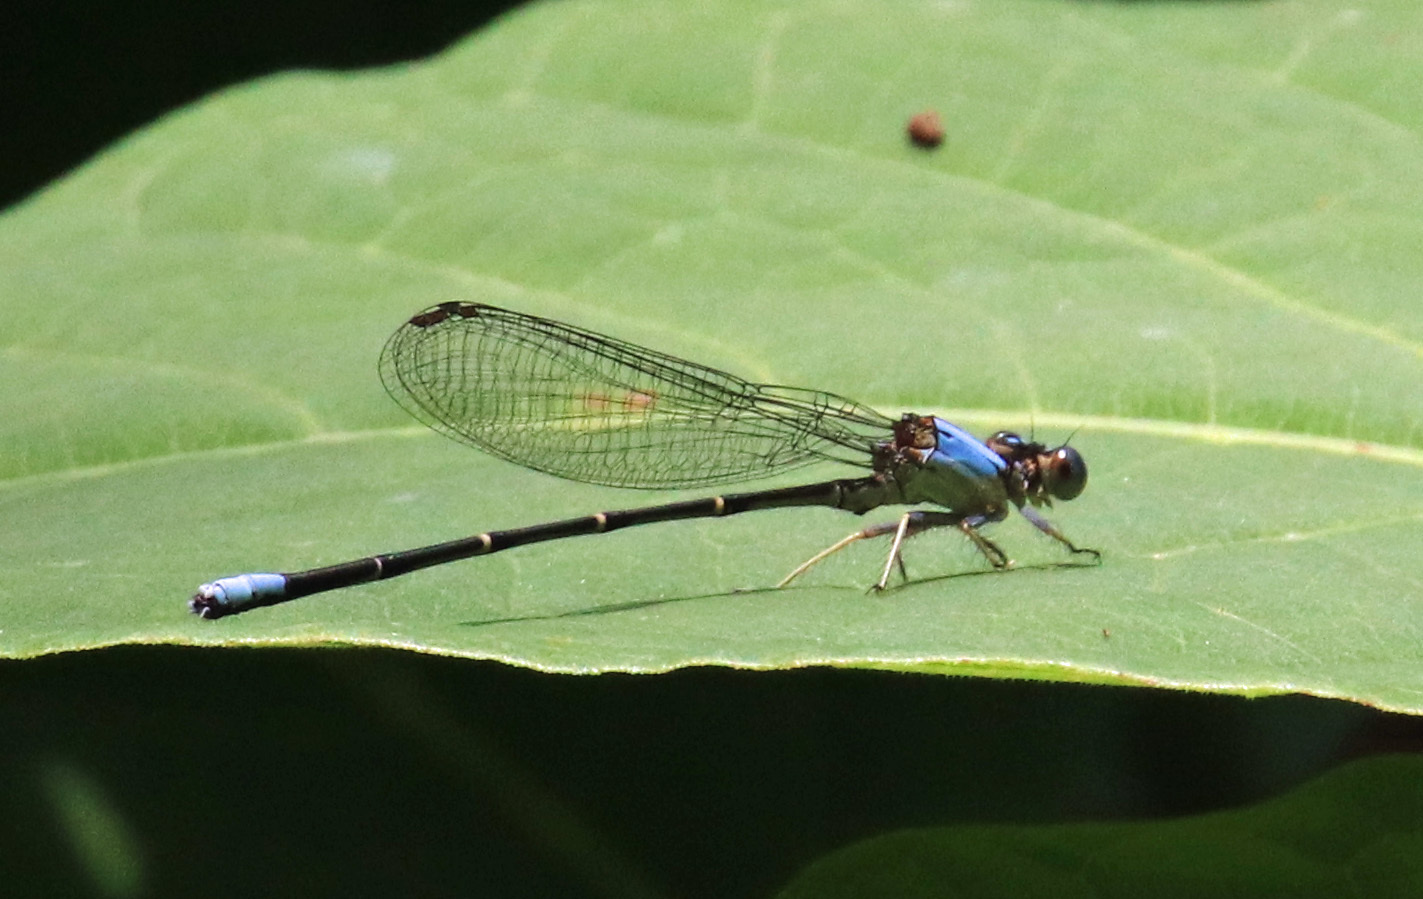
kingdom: Animalia
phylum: Arthropoda
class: Insecta
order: Odonata
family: Coenagrionidae
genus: Argia
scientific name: Argia apicalis
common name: Blue-fronted dancer
